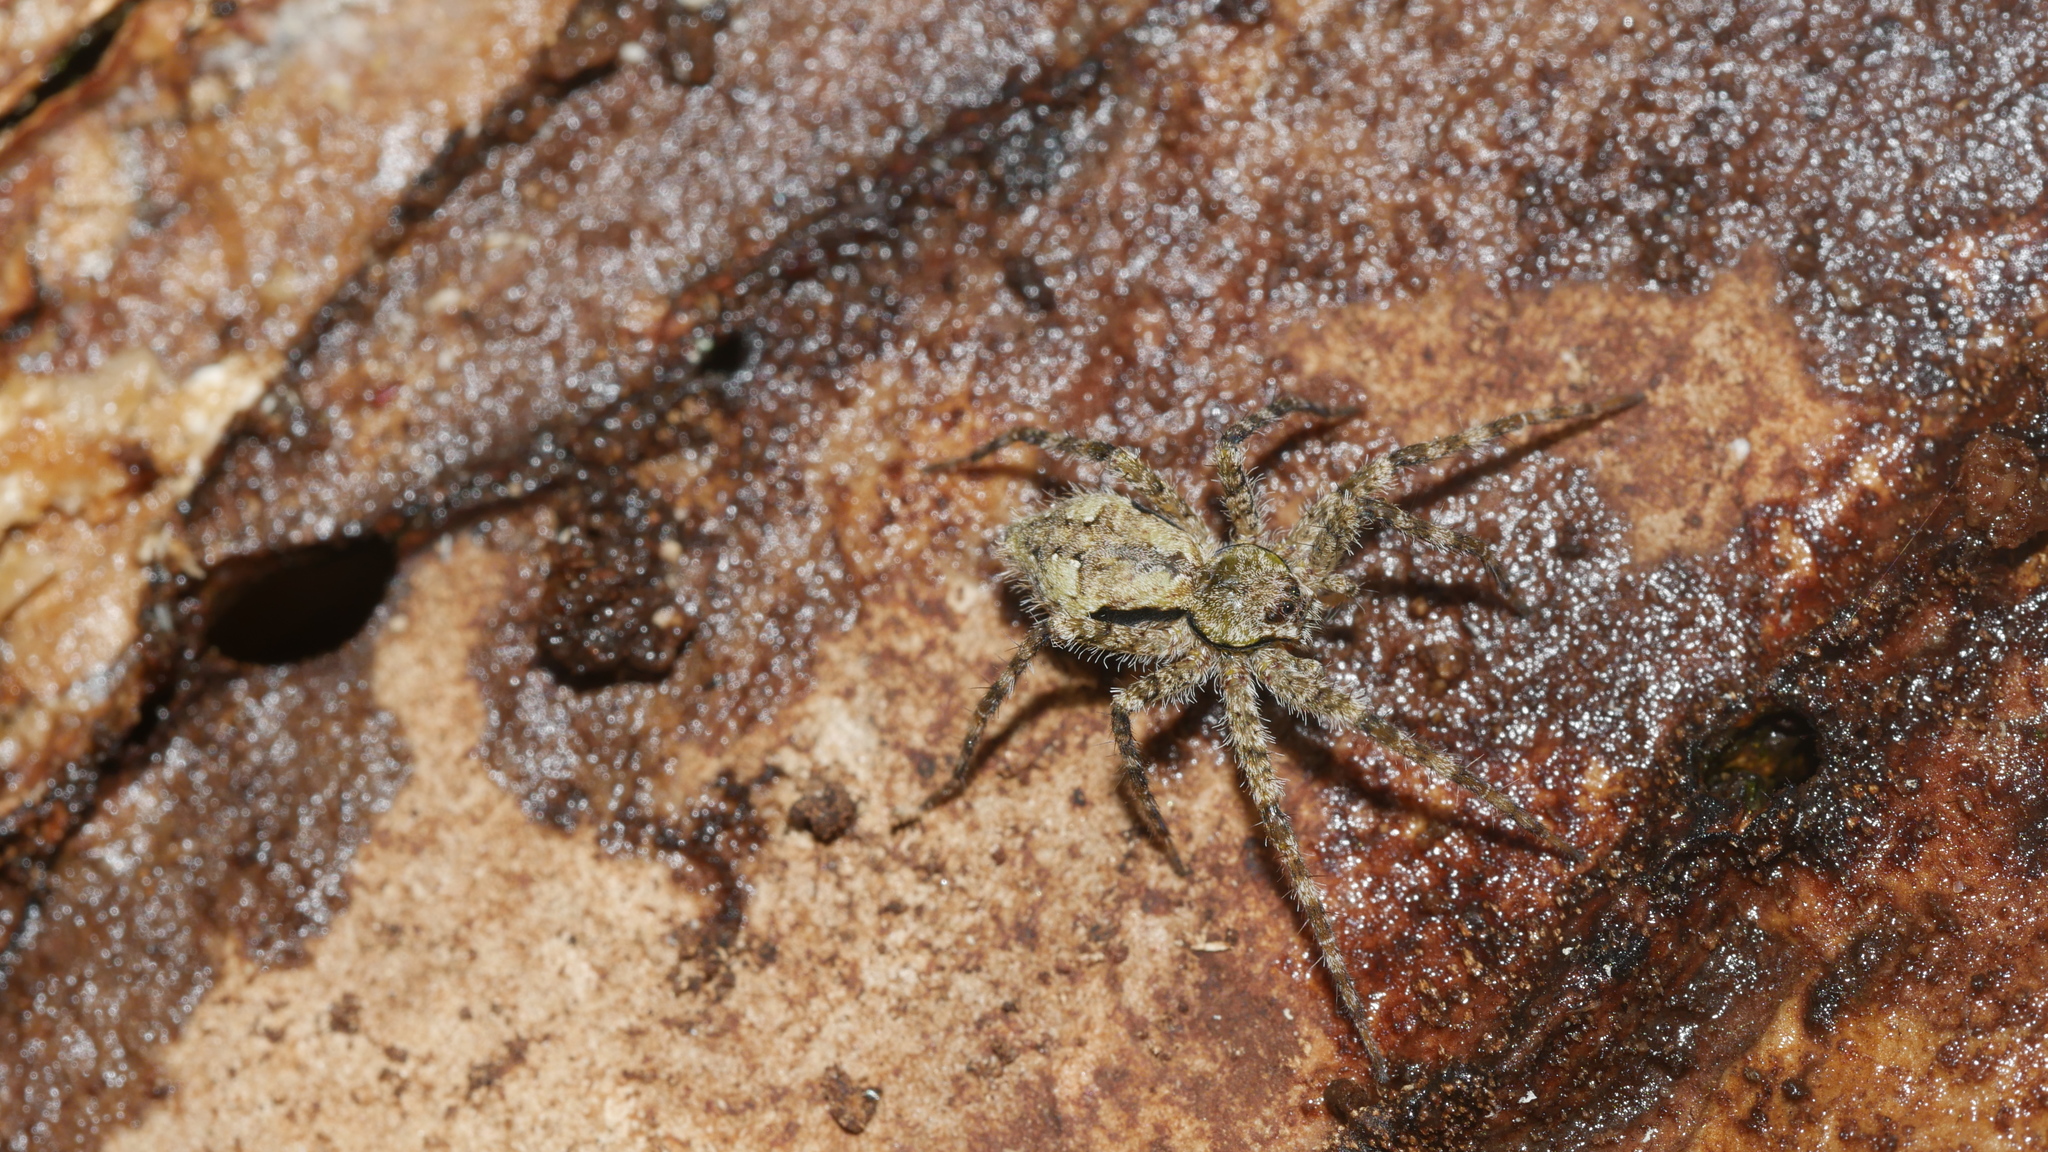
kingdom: Animalia
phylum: Arthropoda
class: Arachnida
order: Araneae
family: Pisauridae
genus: Dolomedes
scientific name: Dolomedes albineus
